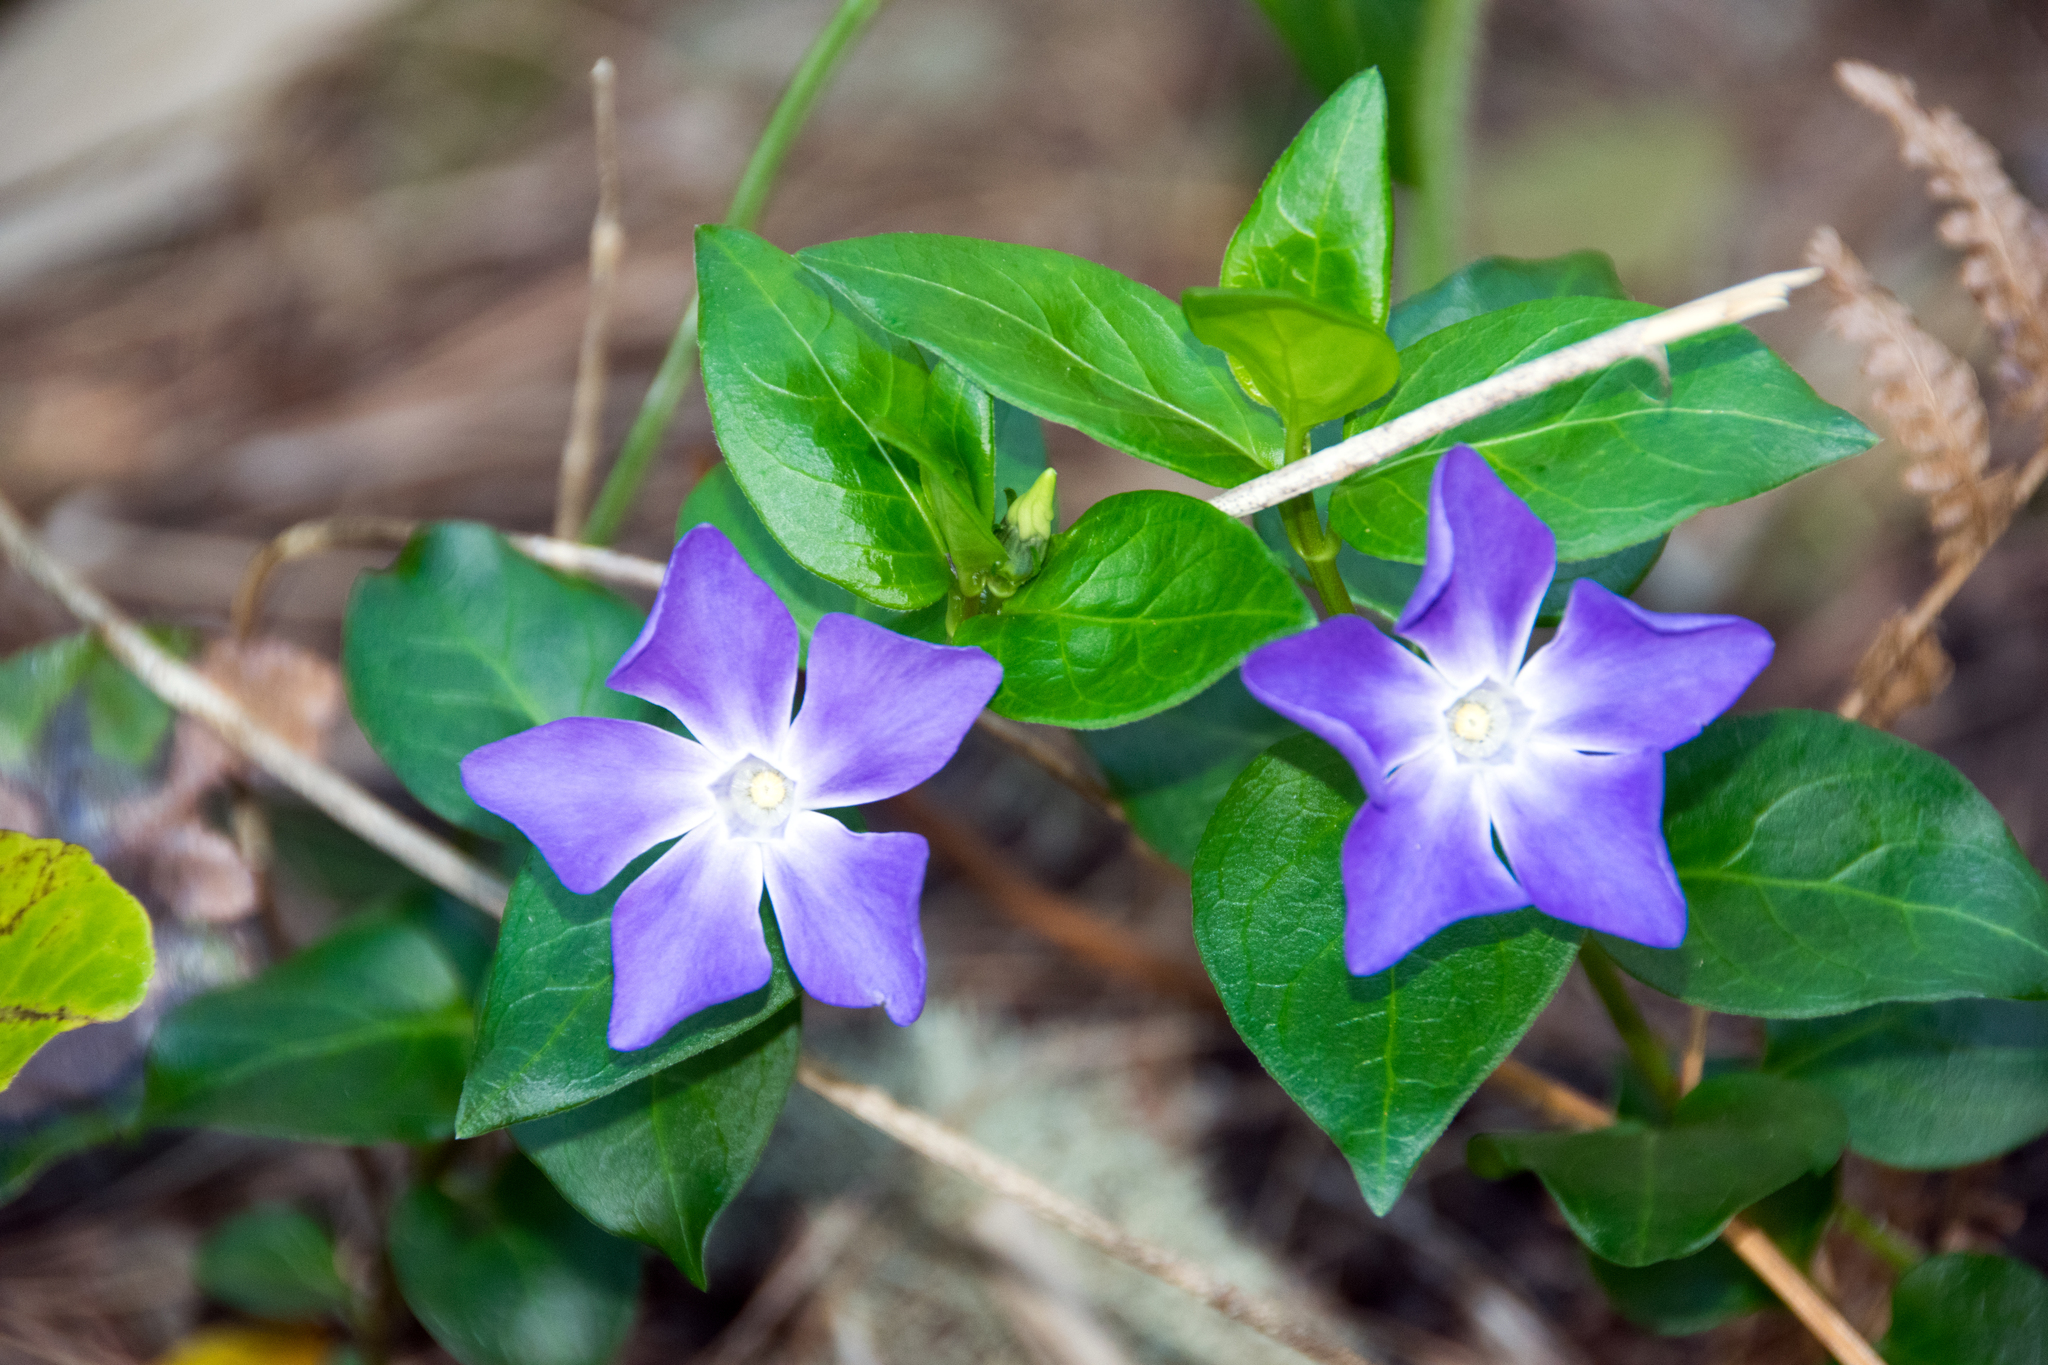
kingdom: Plantae
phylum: Tracheophyta
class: Magnoliopsida
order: Gentianales
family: Apocynaceae
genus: Vinca
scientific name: Vinca major
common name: Greater periwinkle
